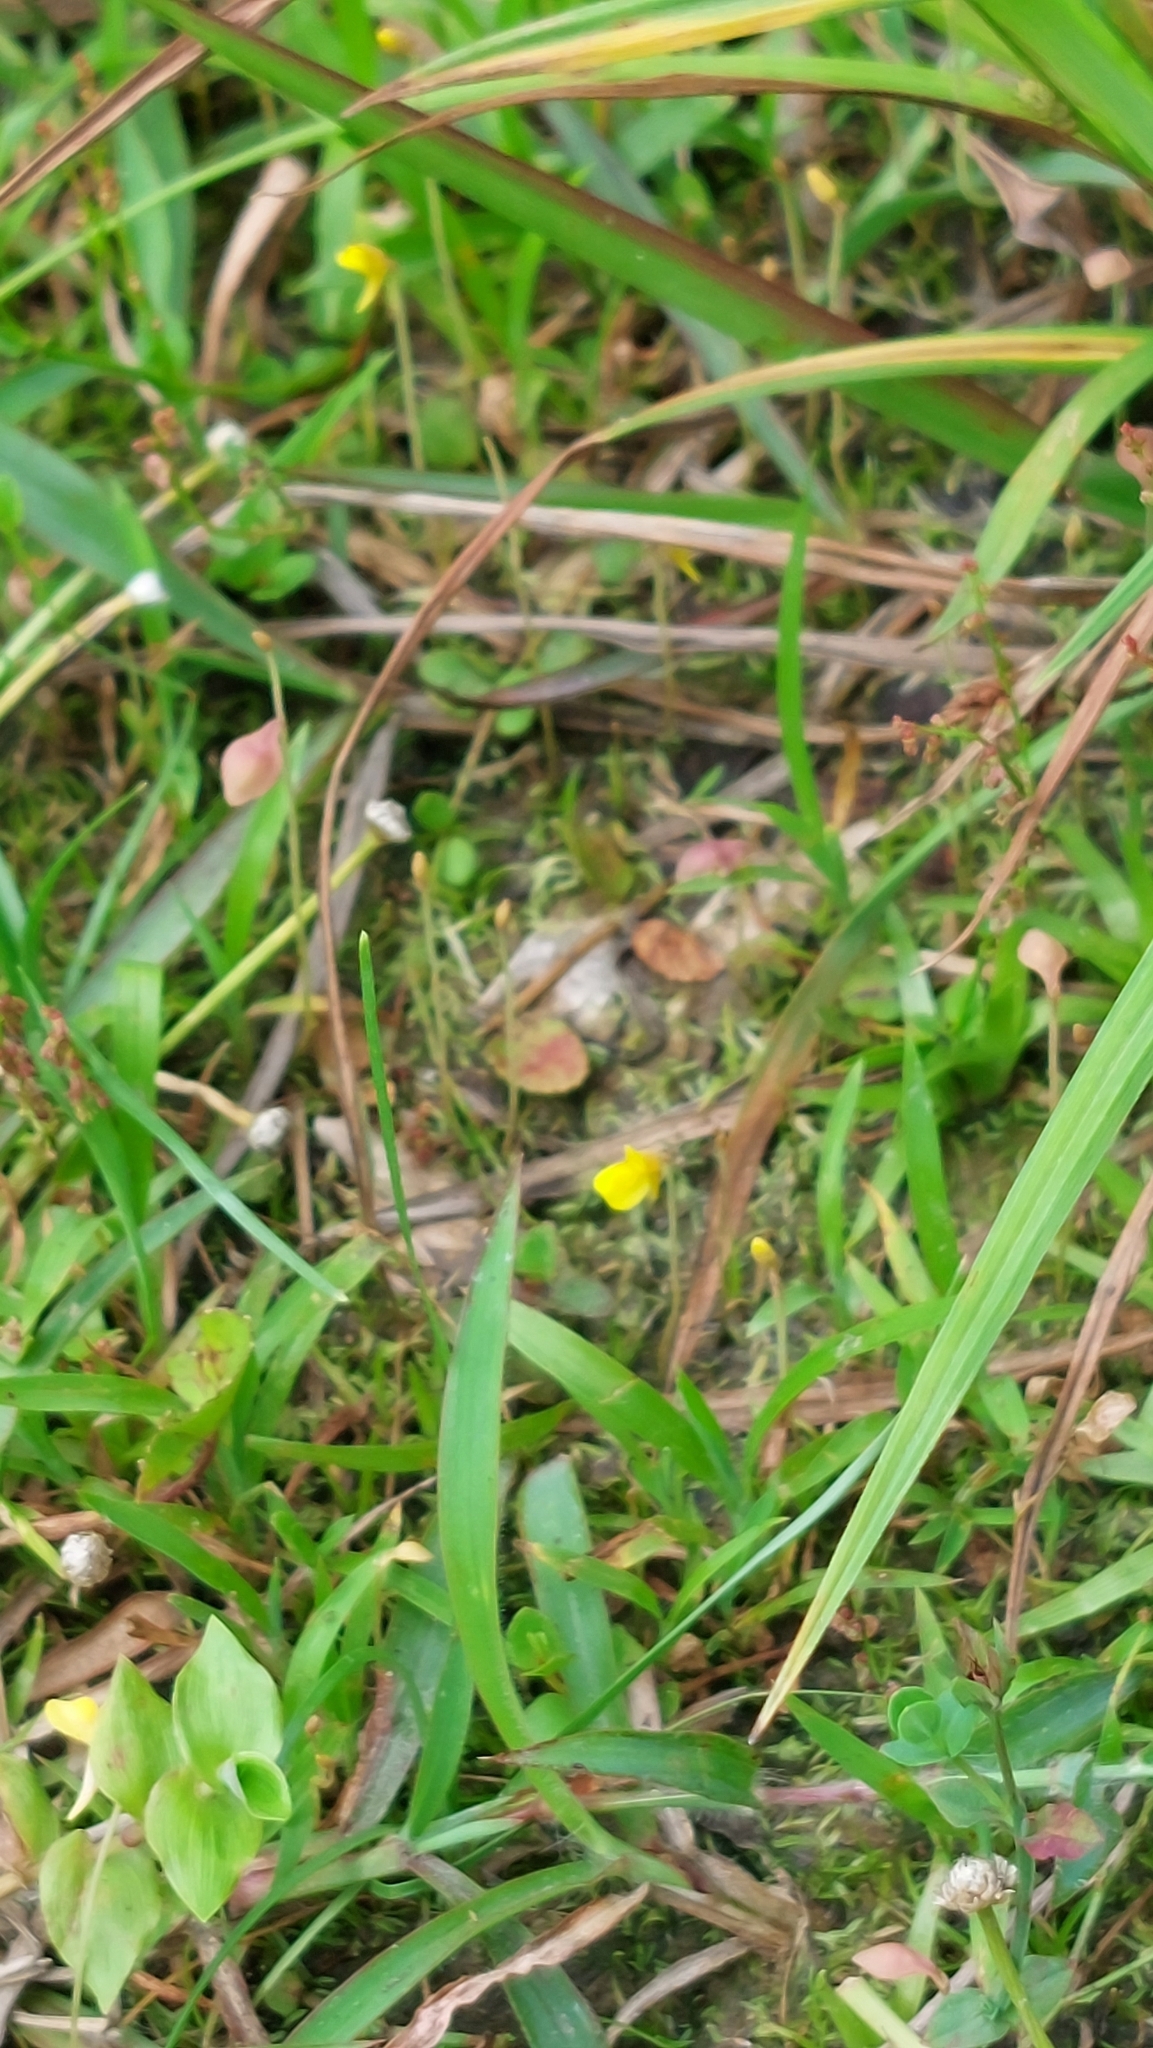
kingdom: Plantae
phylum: Tracheophyta
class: Magnoliopsida
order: Lamiales
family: Lentibulariaceae
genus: Utricularia
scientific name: Utricularia bifida
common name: Bifid bladderwort
